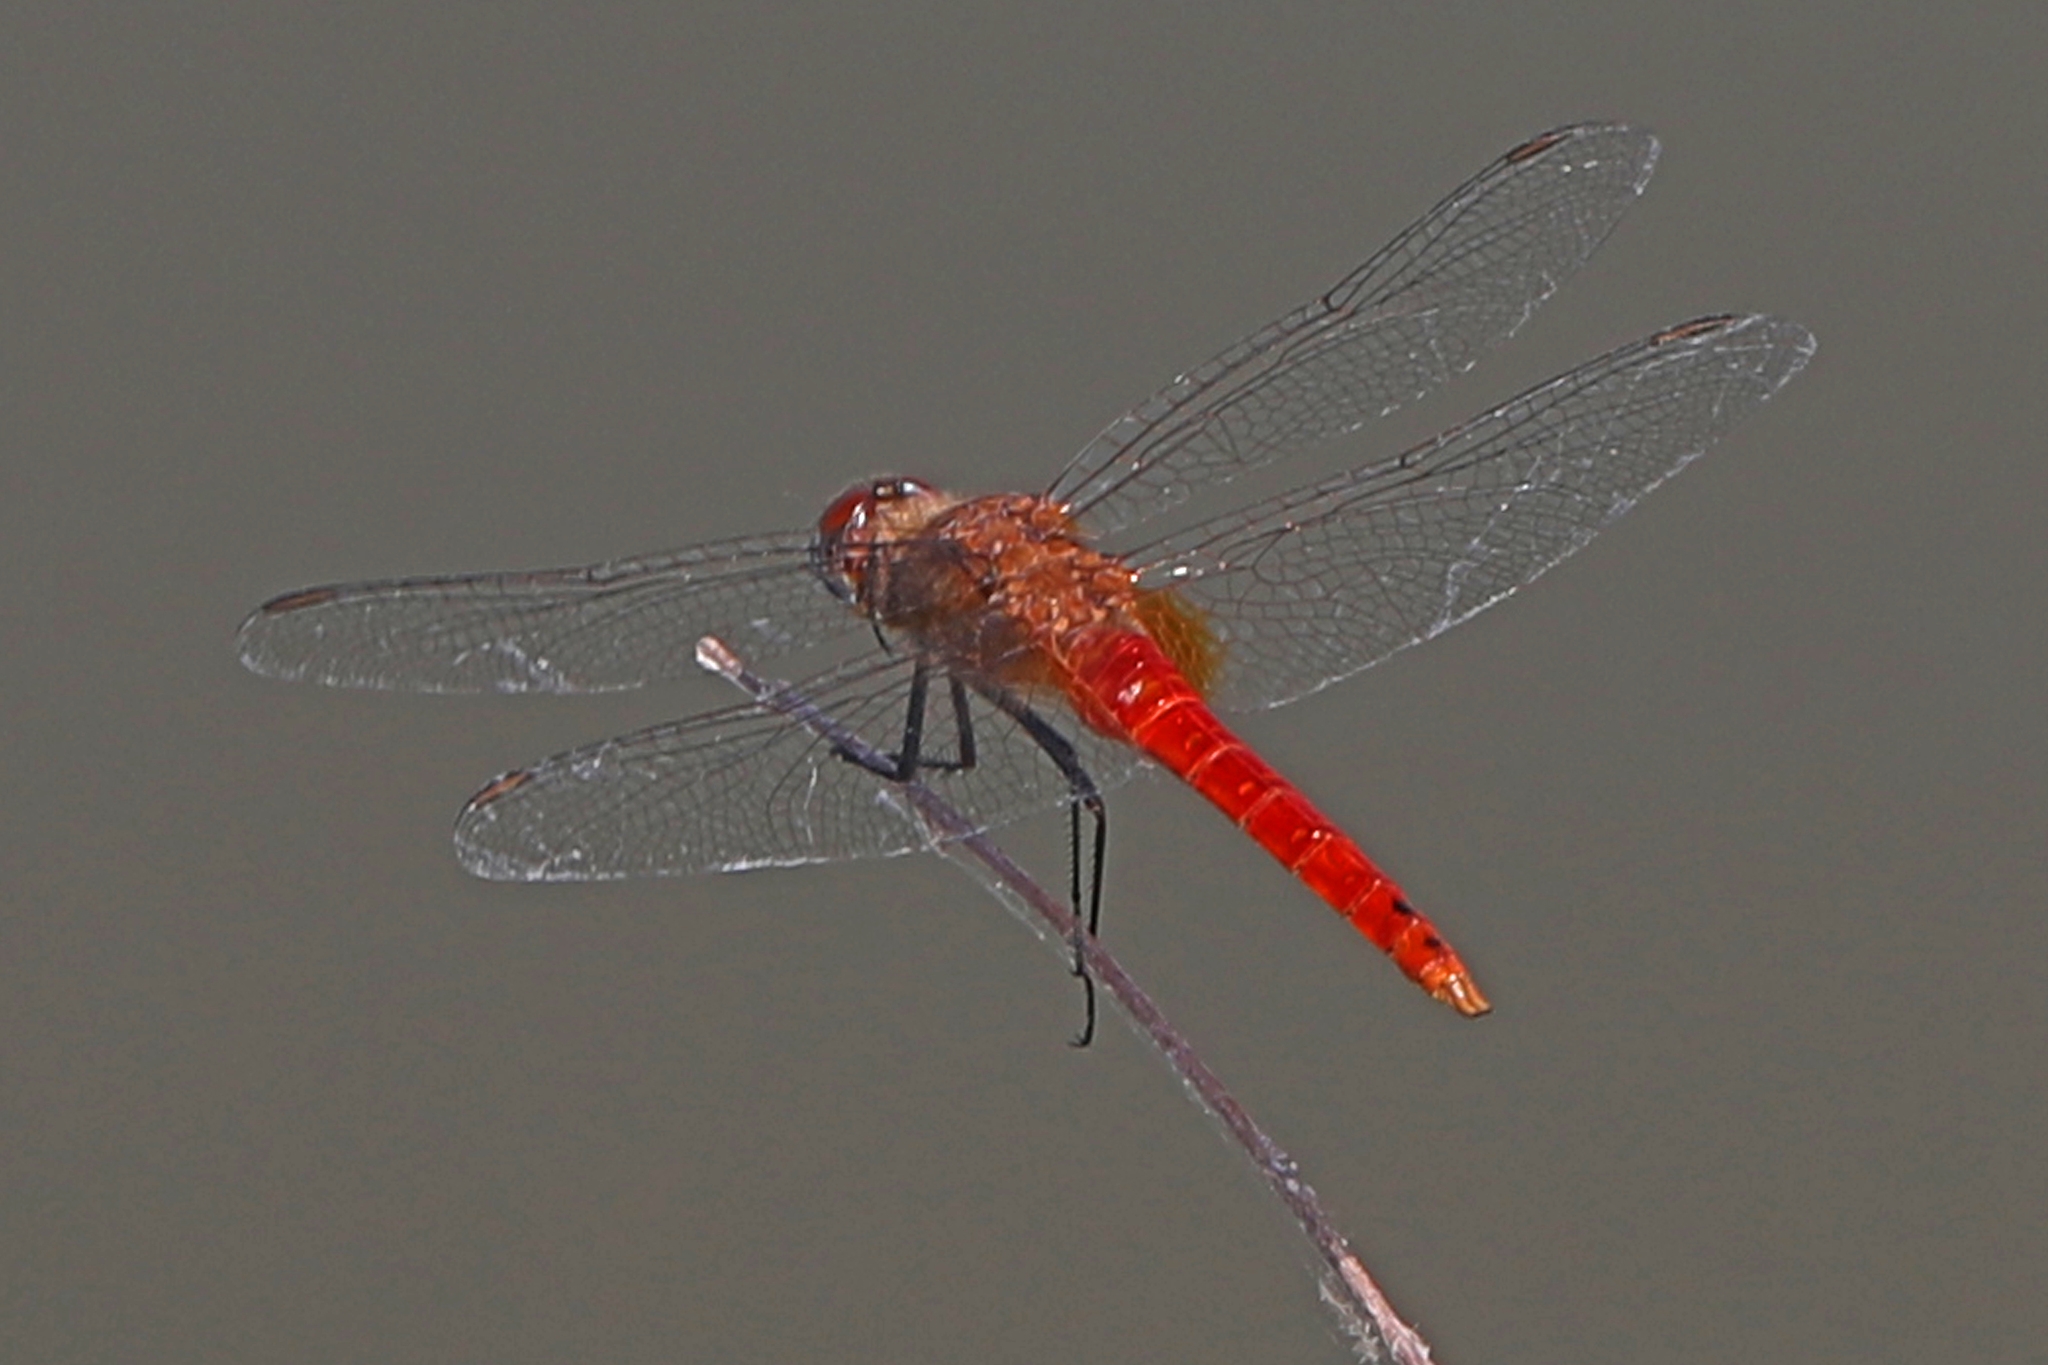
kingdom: Animalia
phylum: Arthropoda
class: Insecta
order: Odonata
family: Libellulidae
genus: Brachymesia
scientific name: Brachymesia furcata
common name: Red-taled pennant
